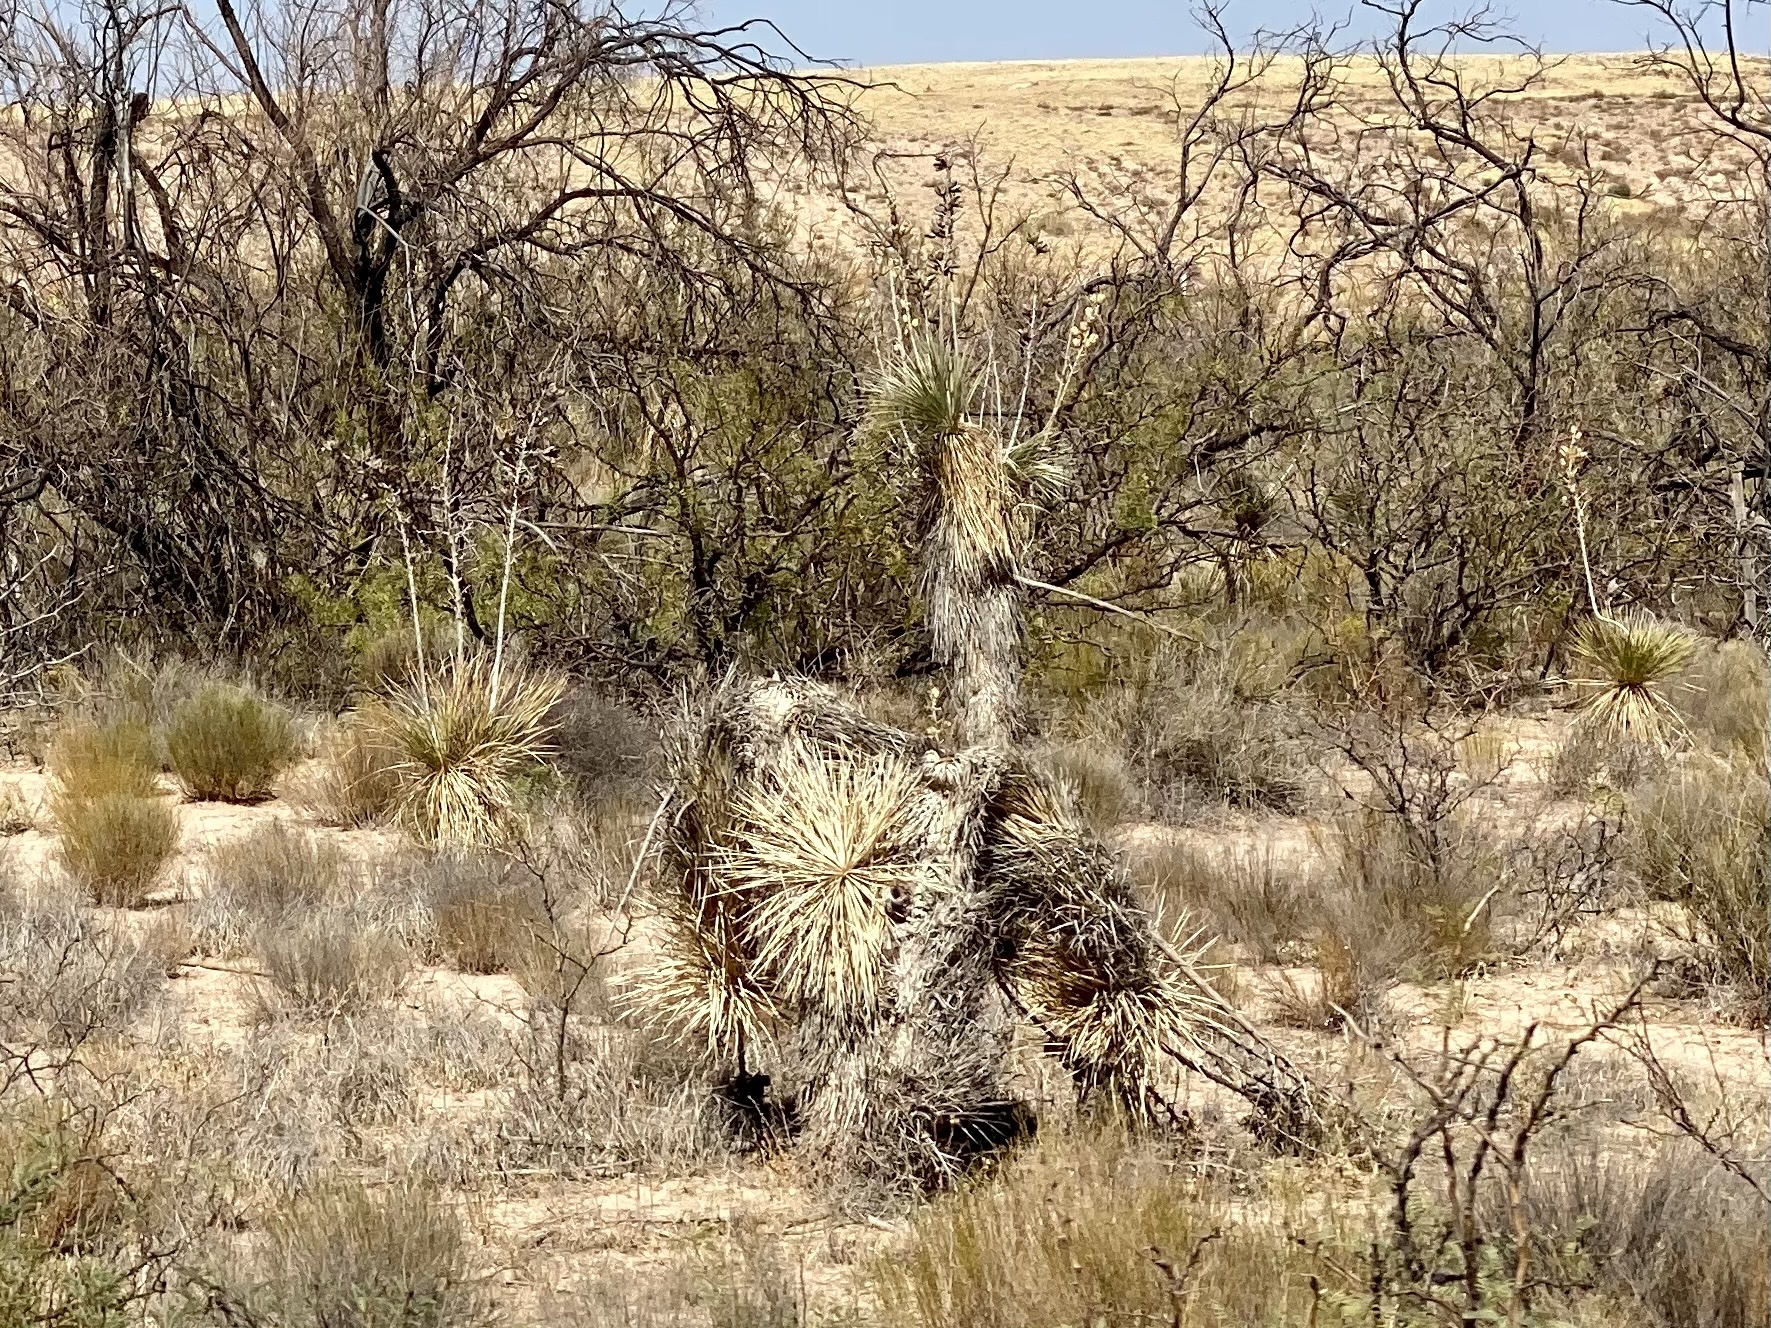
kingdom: Plantae
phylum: Tracheophyta
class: Liliopsida
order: Asparagales
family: Asparagaceae
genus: Yucca
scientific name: Yucca elata
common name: Palmella
